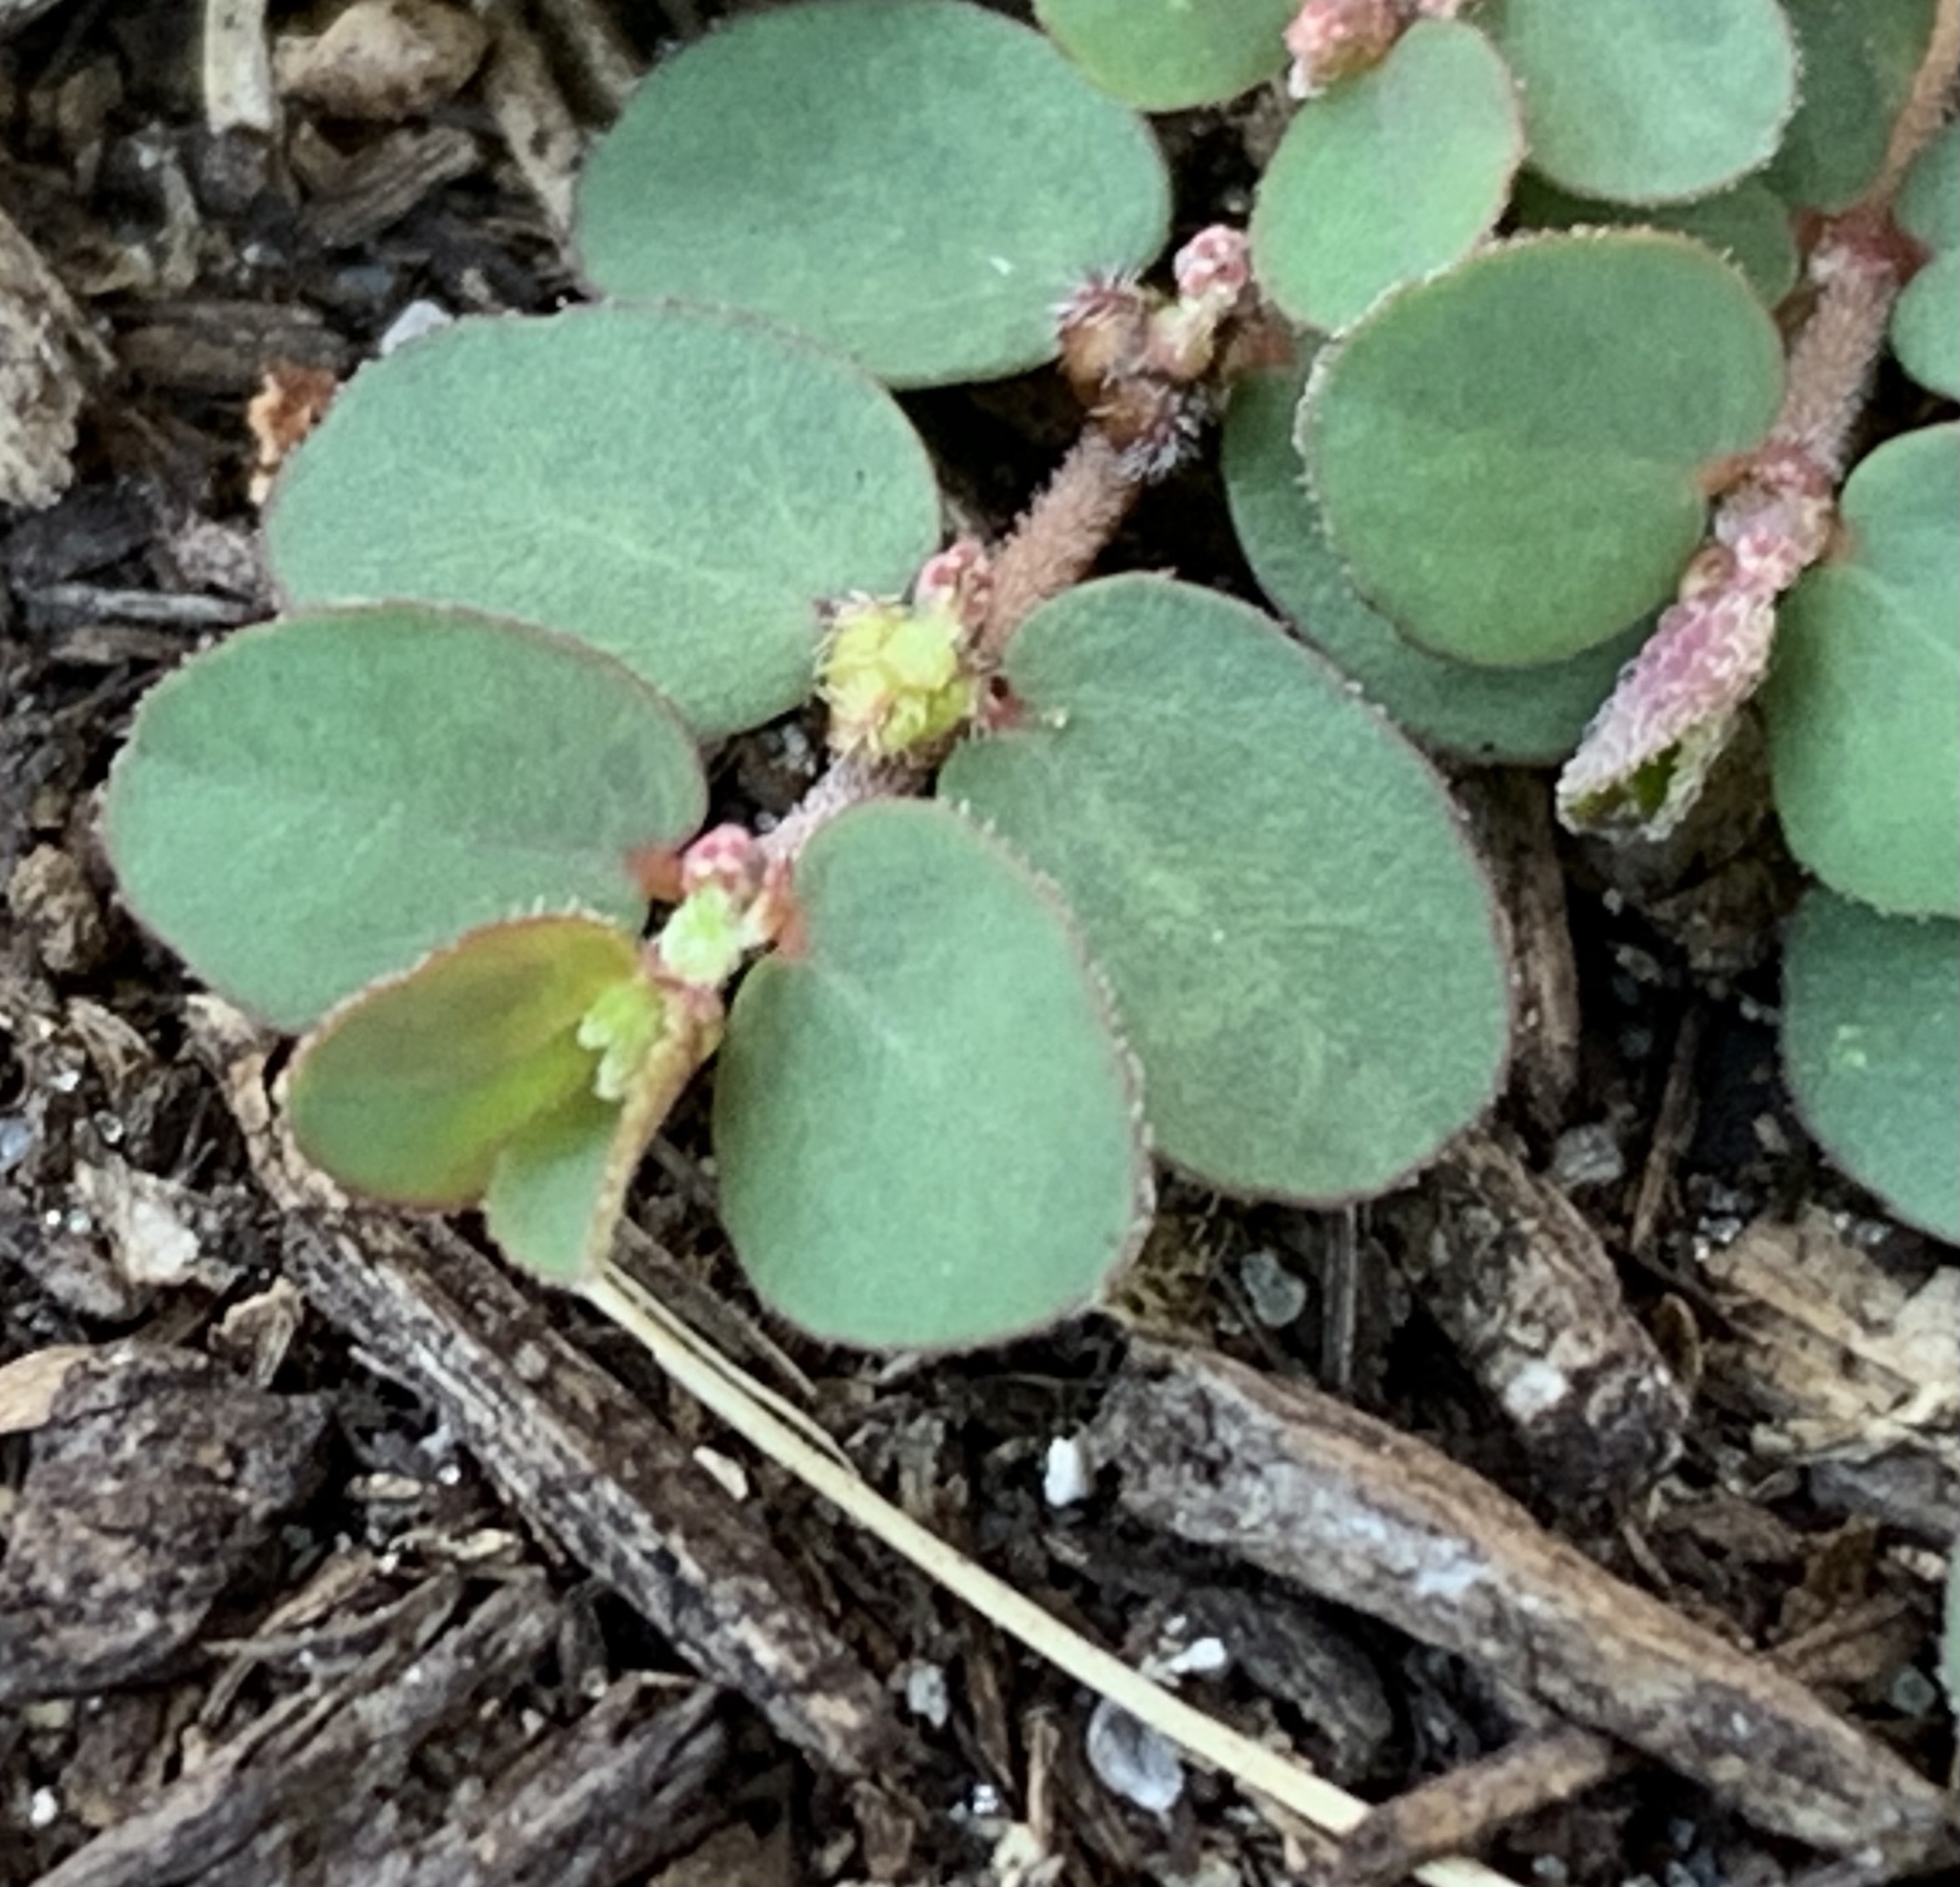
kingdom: Plantae
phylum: Tracheophyta
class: Magnoliopsida
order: Malpighiales
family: Euphorbiaceae
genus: Euphorbia
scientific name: Euphorbia prostrata
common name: Prostrate sandmat
